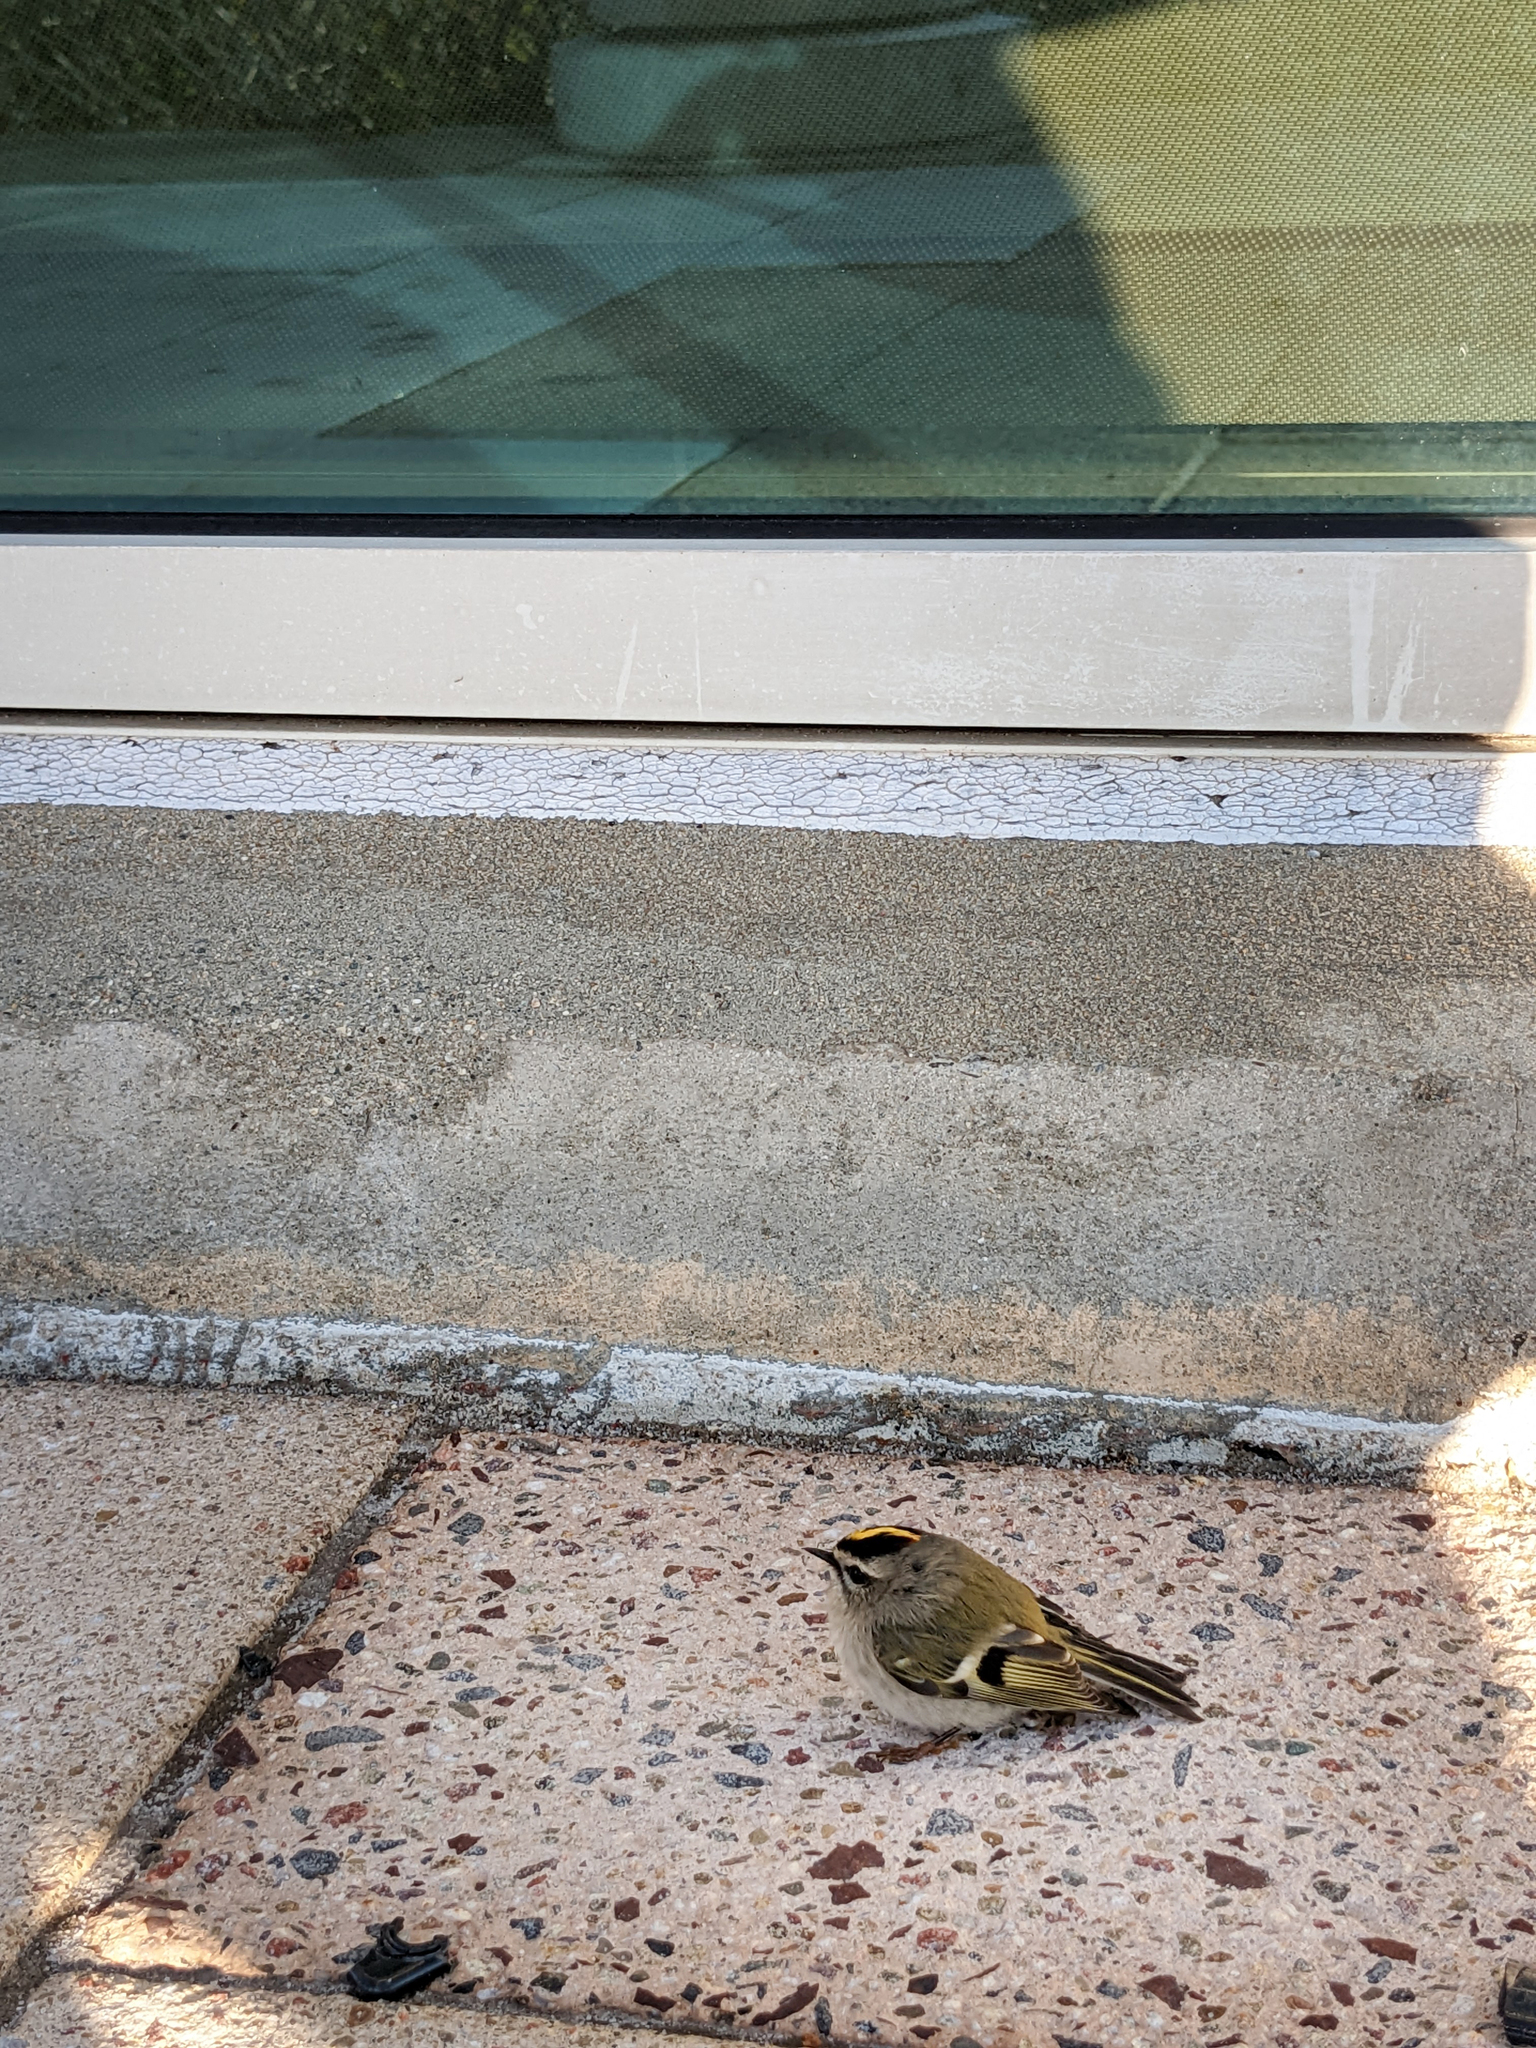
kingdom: Animalia
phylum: Chordata
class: Aves
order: Passeriformes
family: Regulidae
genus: Regulus
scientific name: Regulus satrapa
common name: Golden-crowned kinglet
